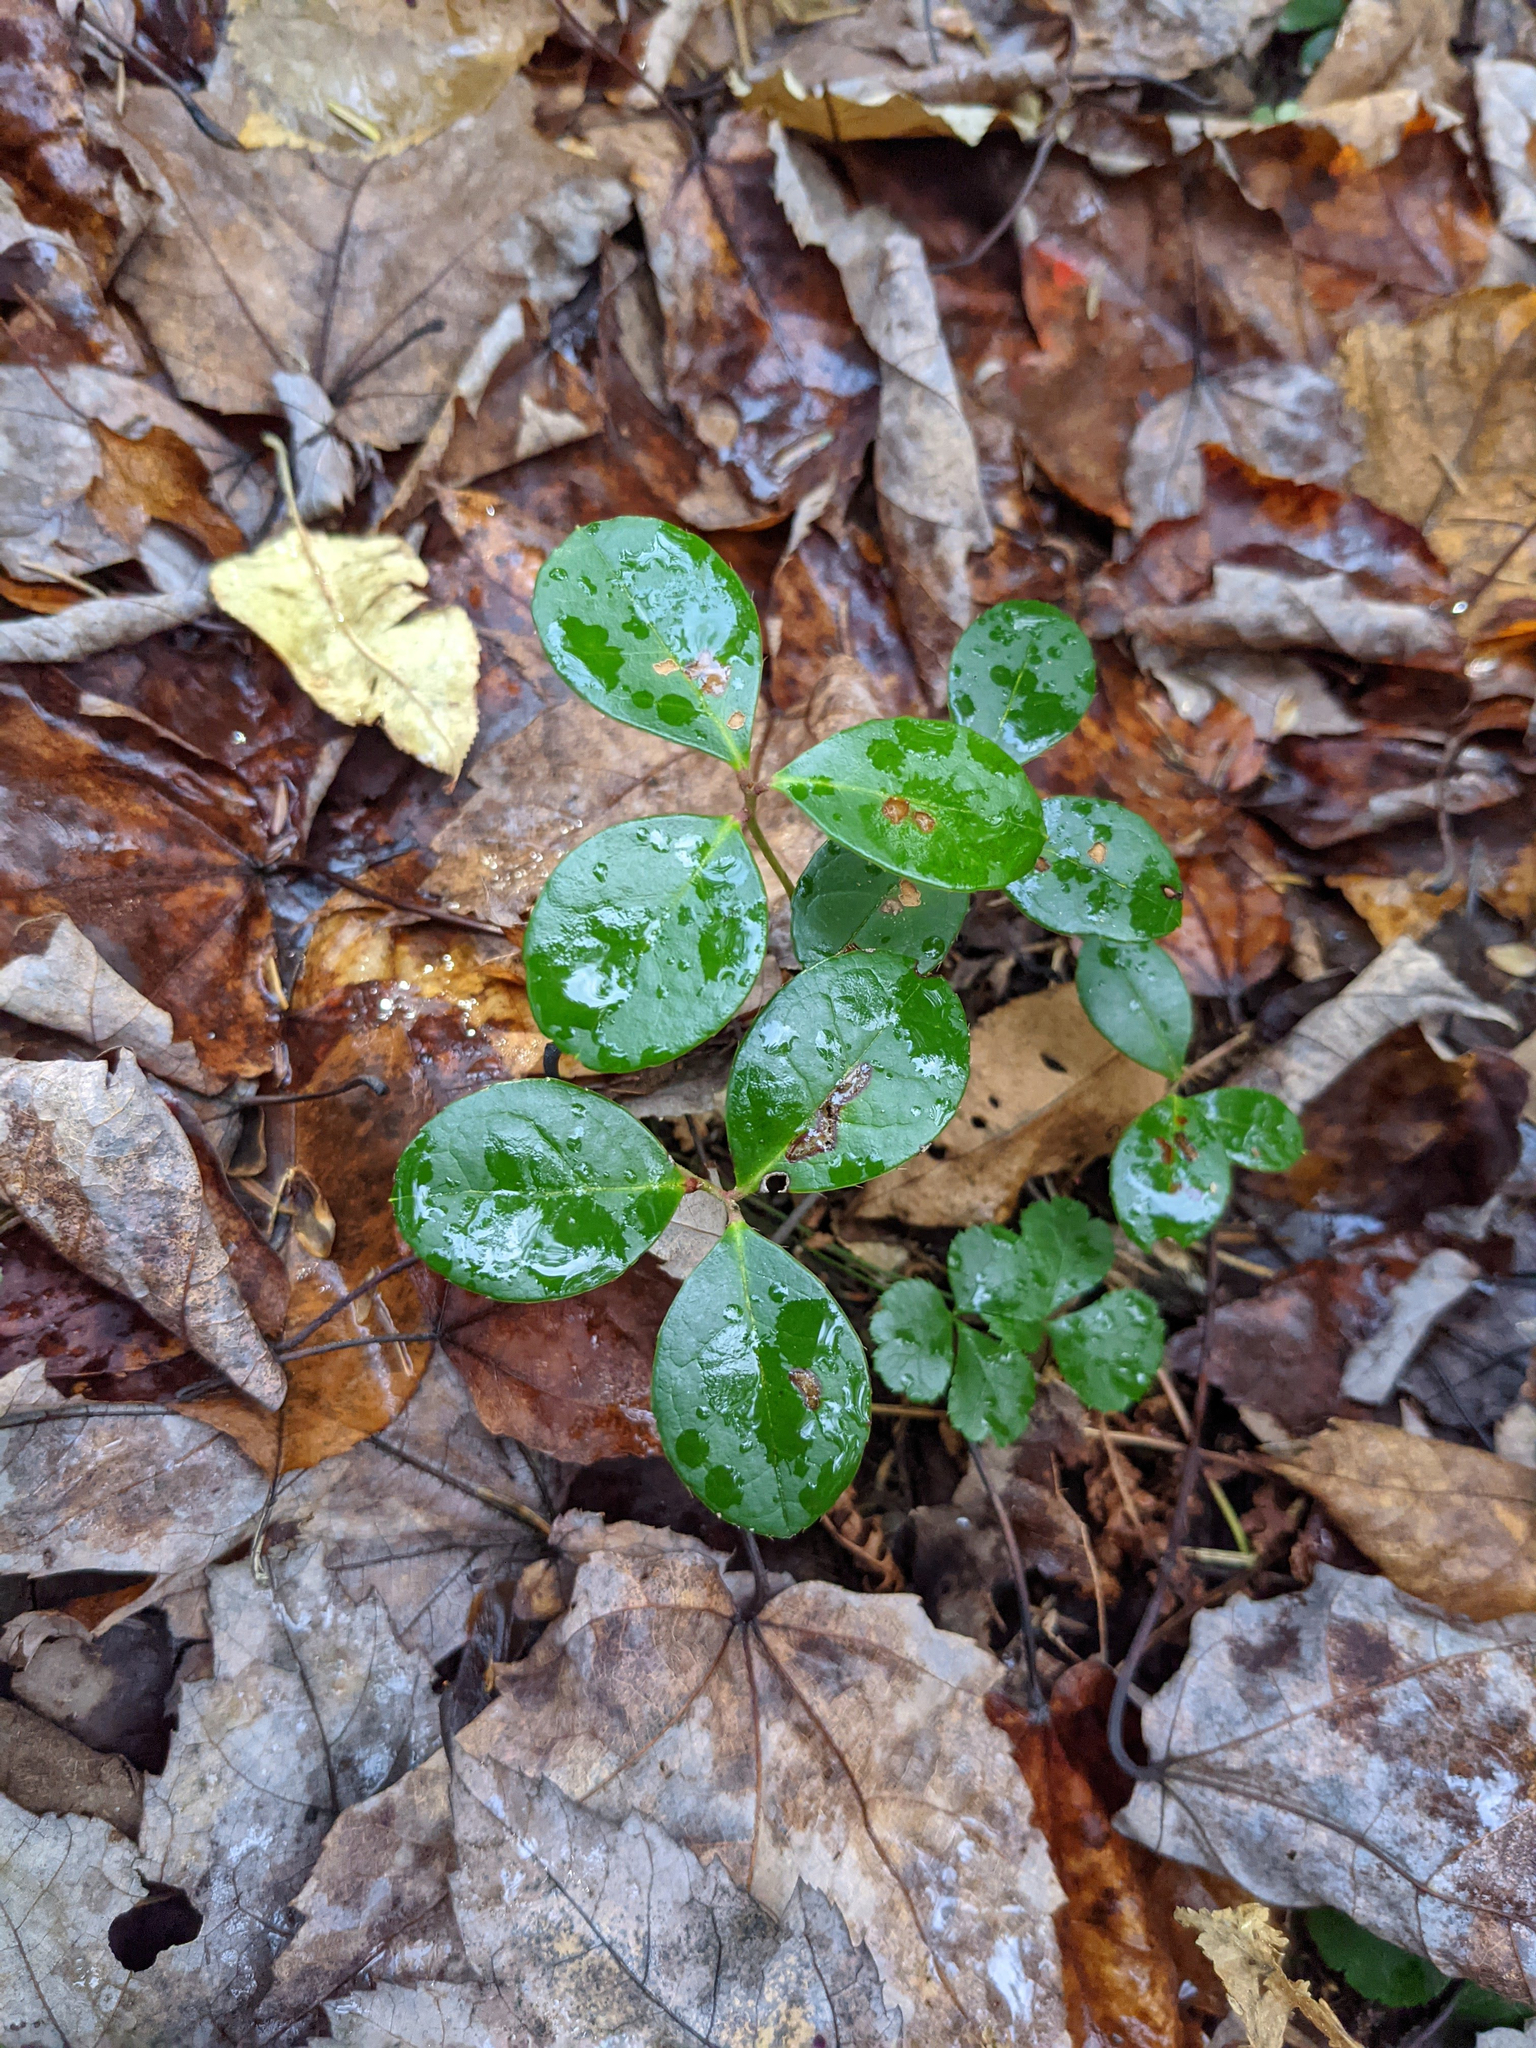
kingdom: Plantae
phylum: Tracheophyta
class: Magnoliopsida
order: Ericales
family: Ericaceae
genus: Gaultheria
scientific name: Gaultheria procumbens
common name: Checkerberry
